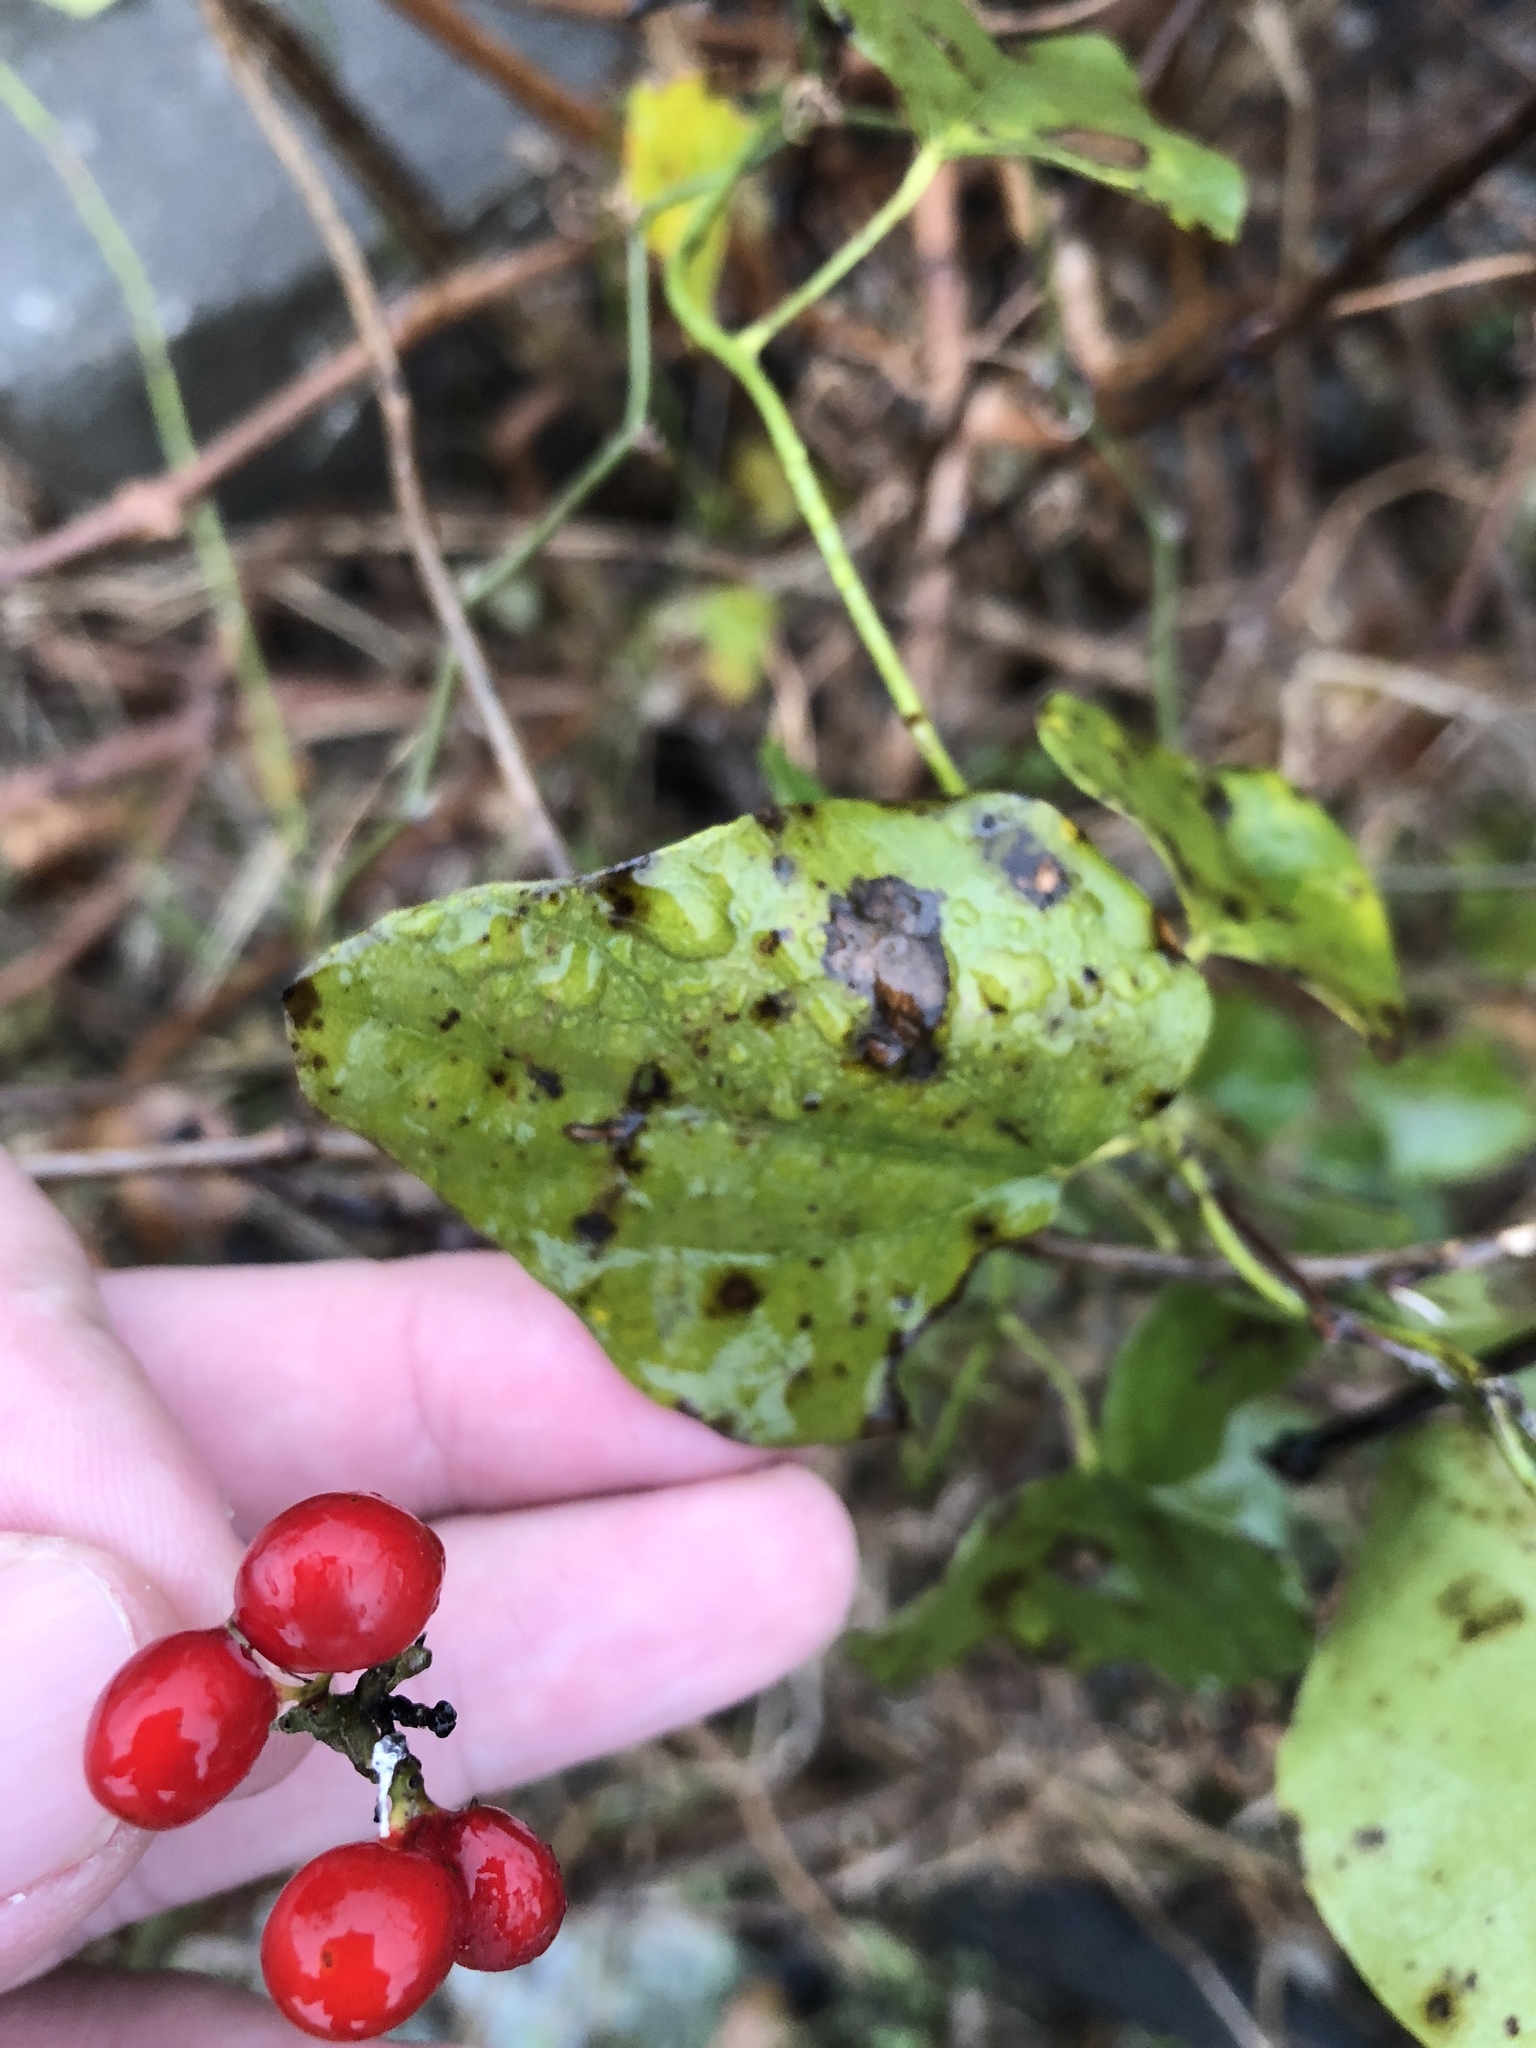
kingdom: Plantae
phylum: Tracheophyta
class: Magnoliopsida
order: Ranunculales
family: Menispermaceae
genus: Cocculus
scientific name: Cocculus carolinus
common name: Carolina moonseed
